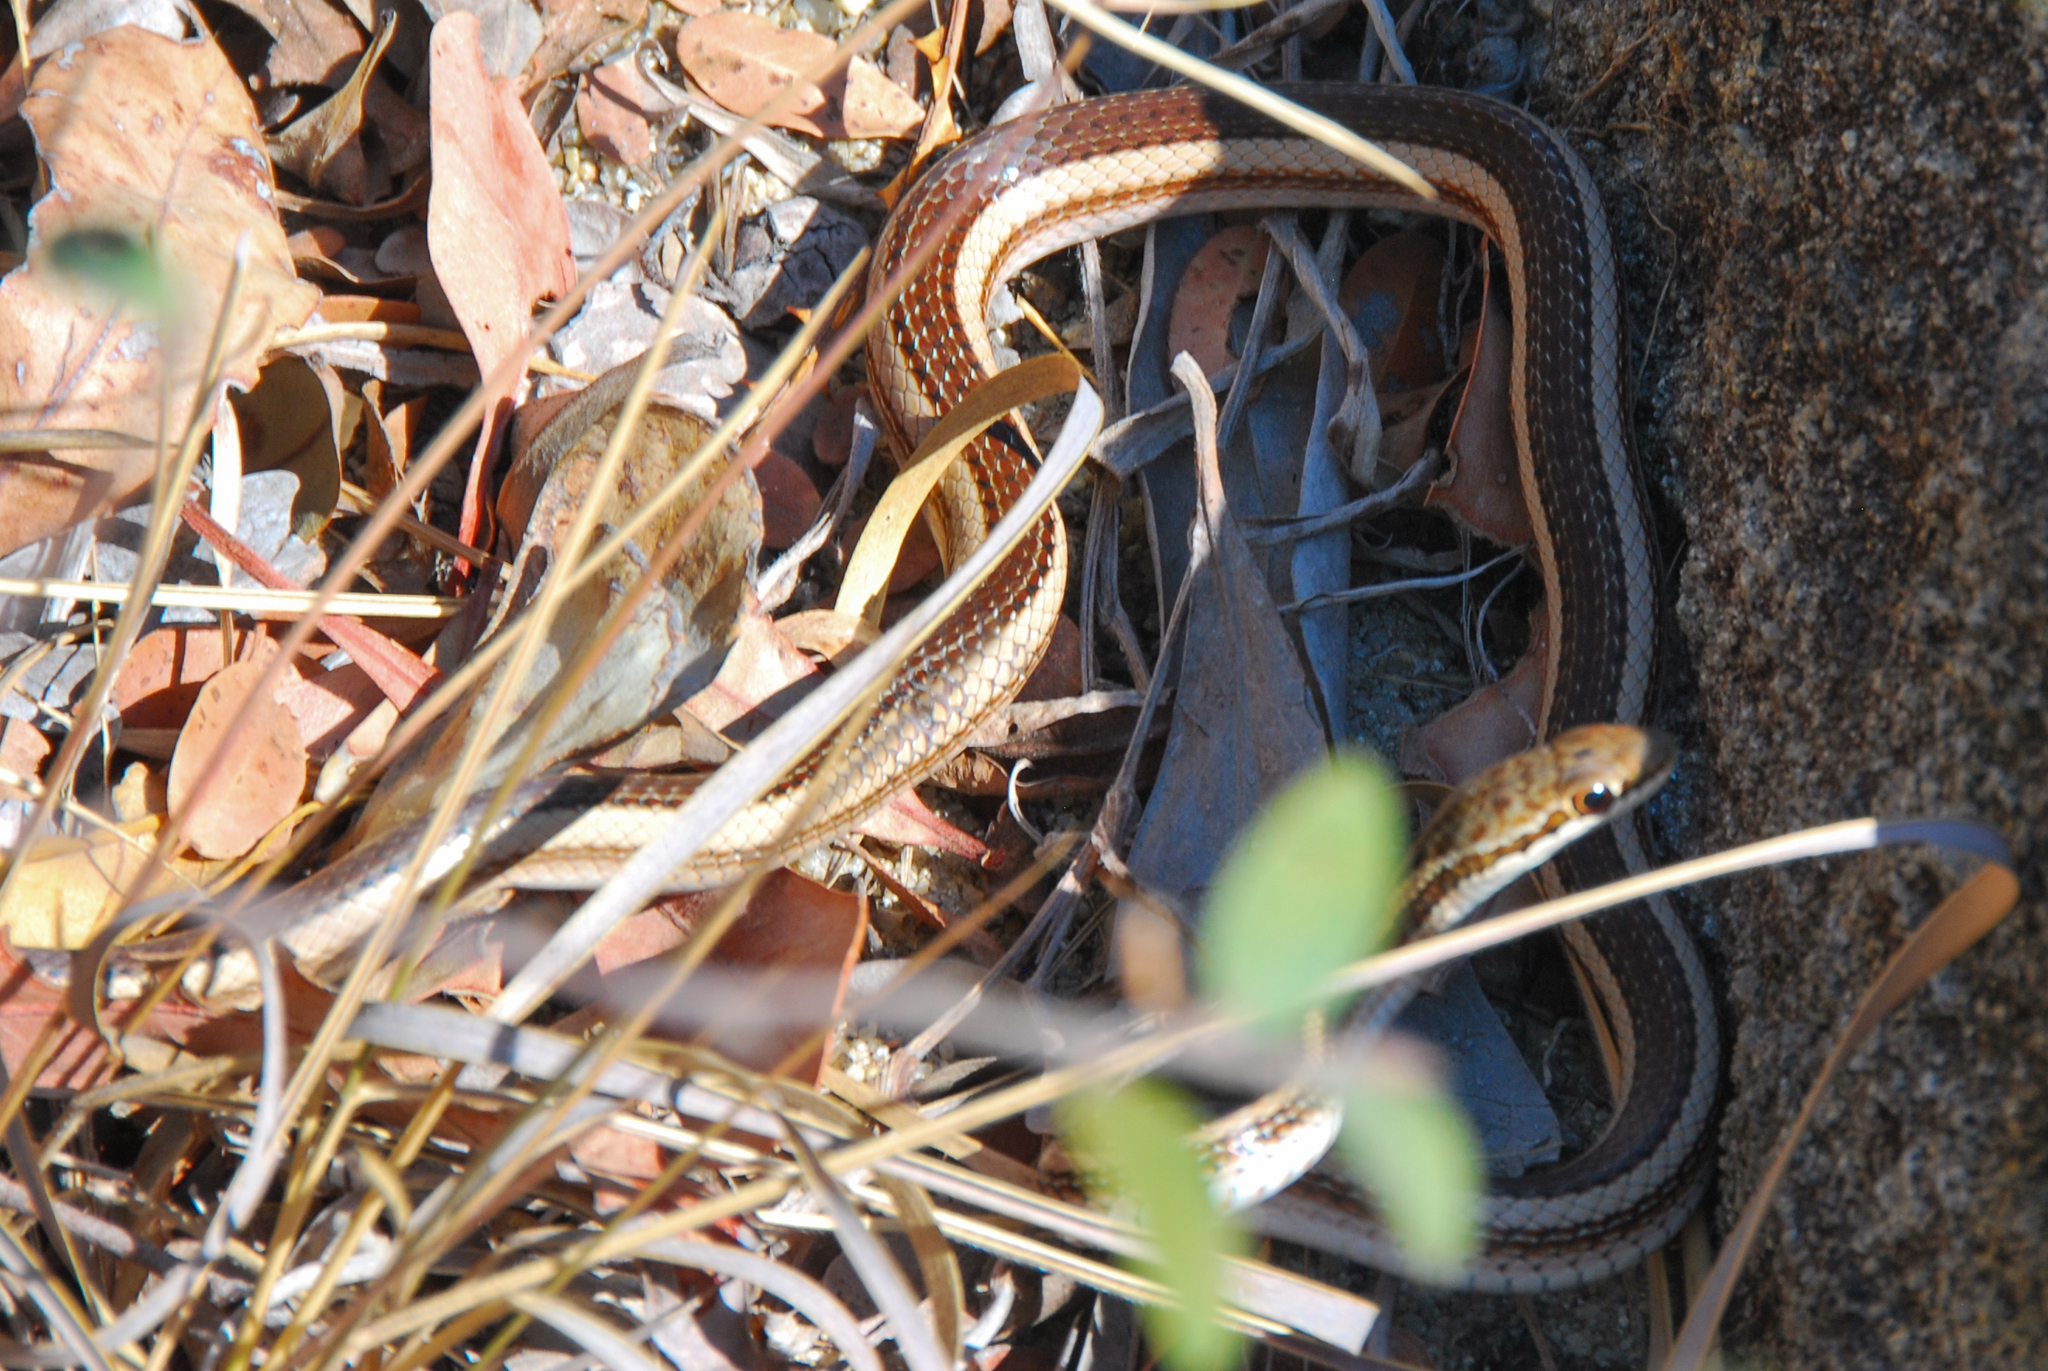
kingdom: Animalia
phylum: Chordata
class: Squamata
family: Pseudoxyrhophiidae
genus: Dromicodryas
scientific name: Dromicodryas bernieri
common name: Bernier's striped snake
